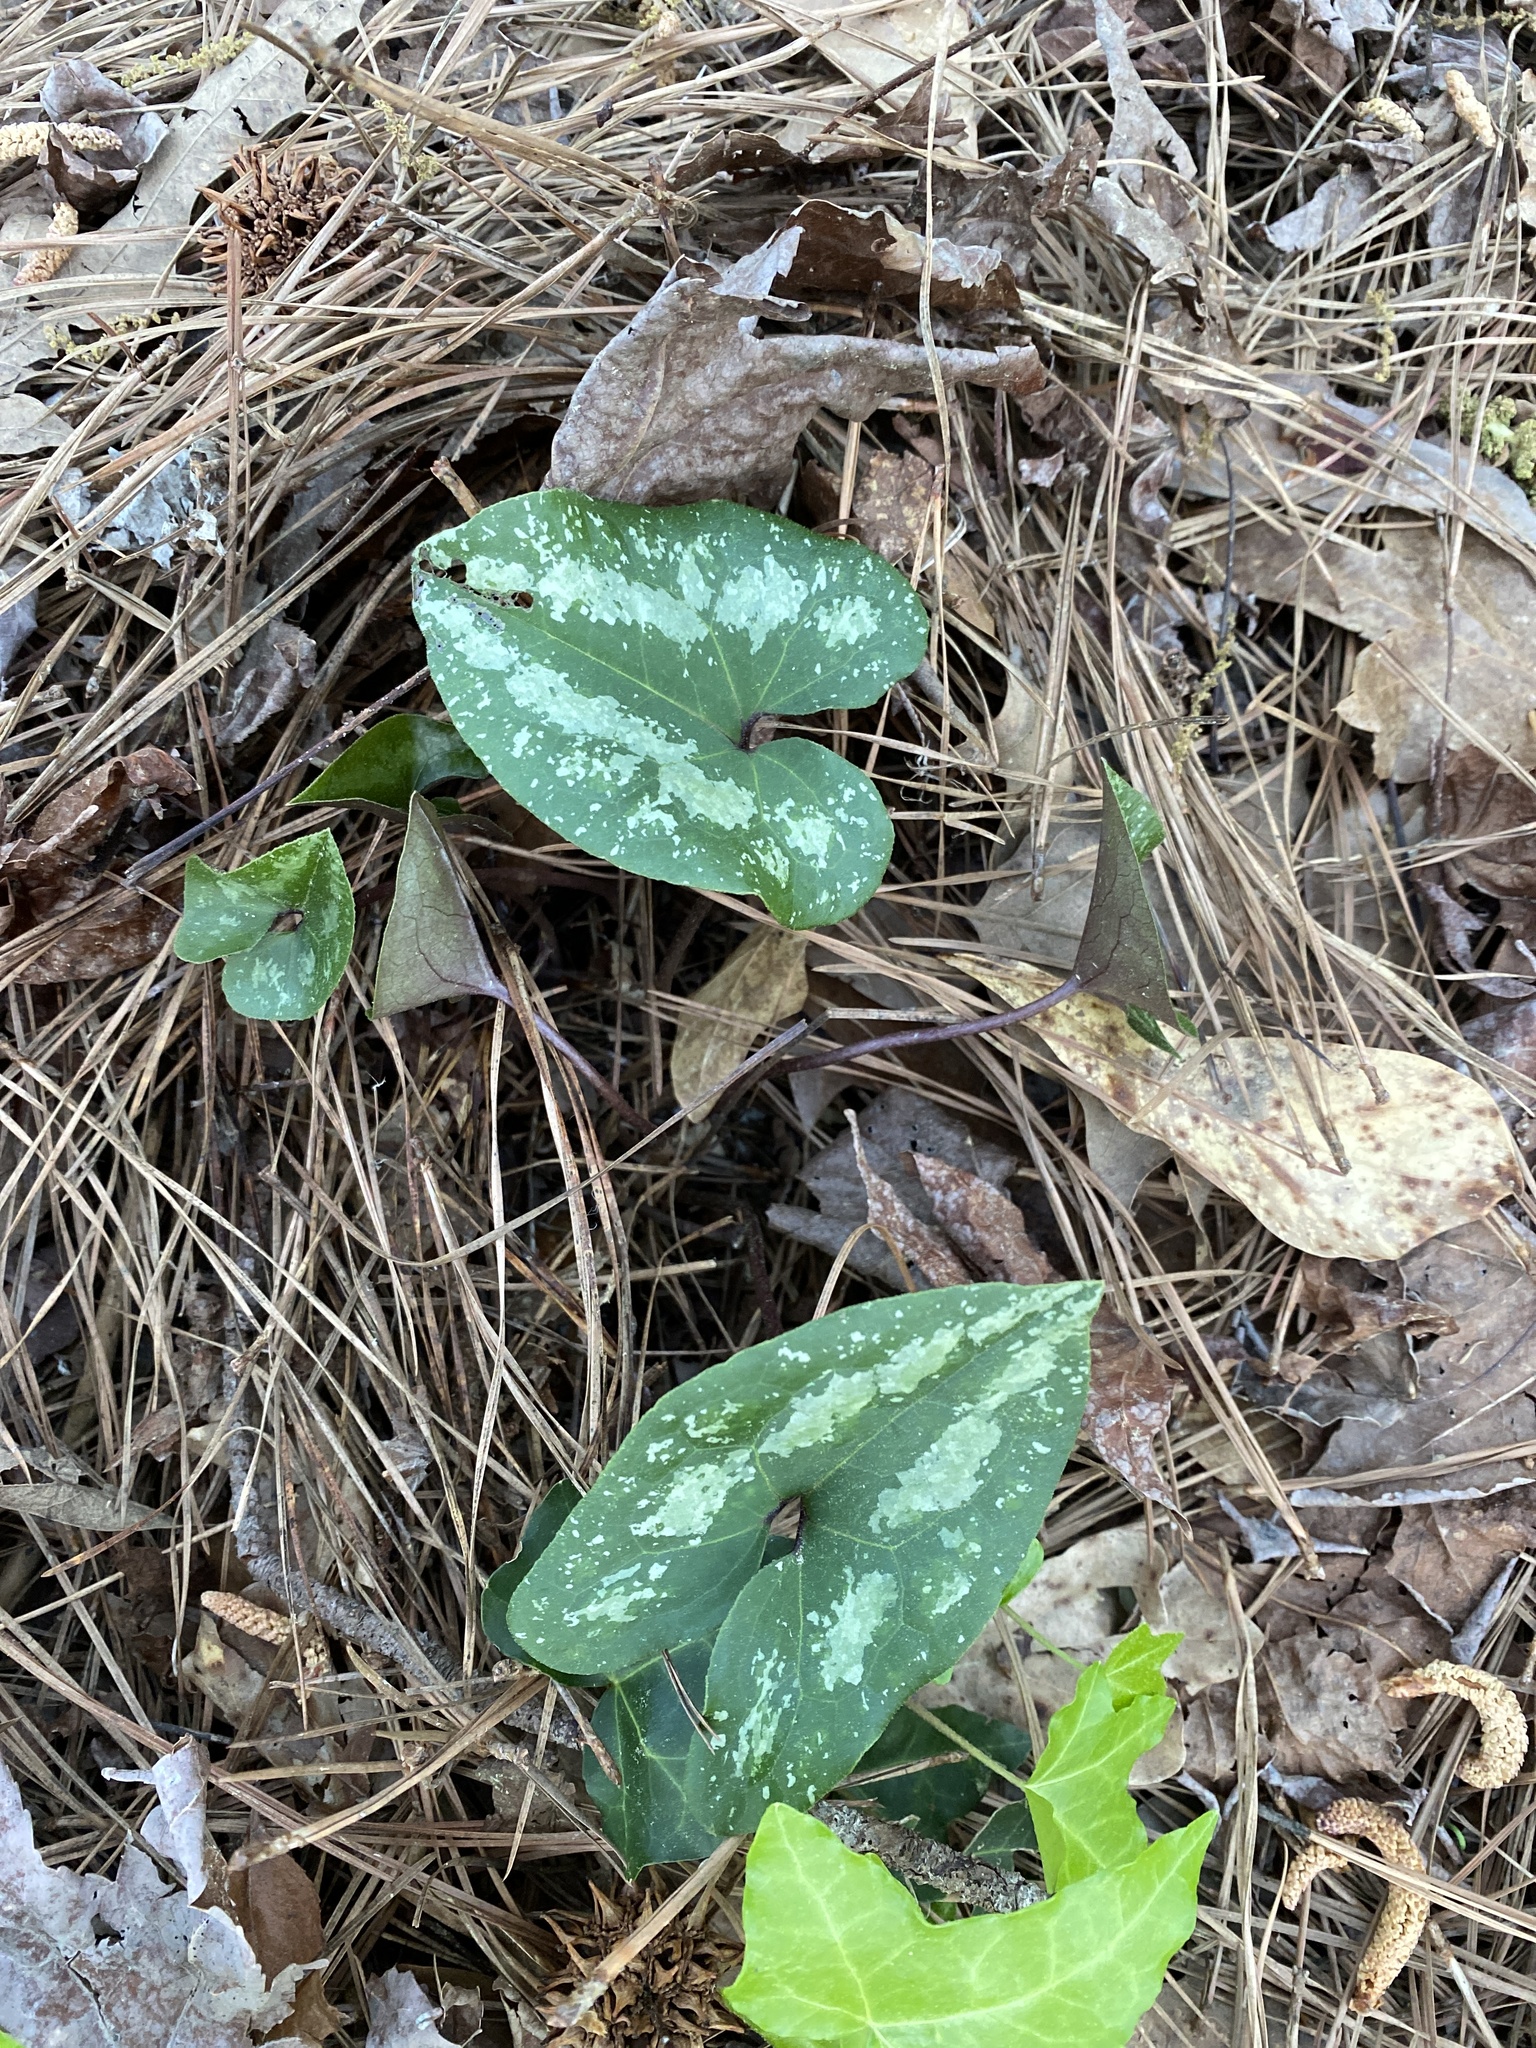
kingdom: Plantae
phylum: Tracheophyta
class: Magnoliopsida
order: Piperales
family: Aristolochiaceae
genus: Hexastylis
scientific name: Hexastylis arifolia
